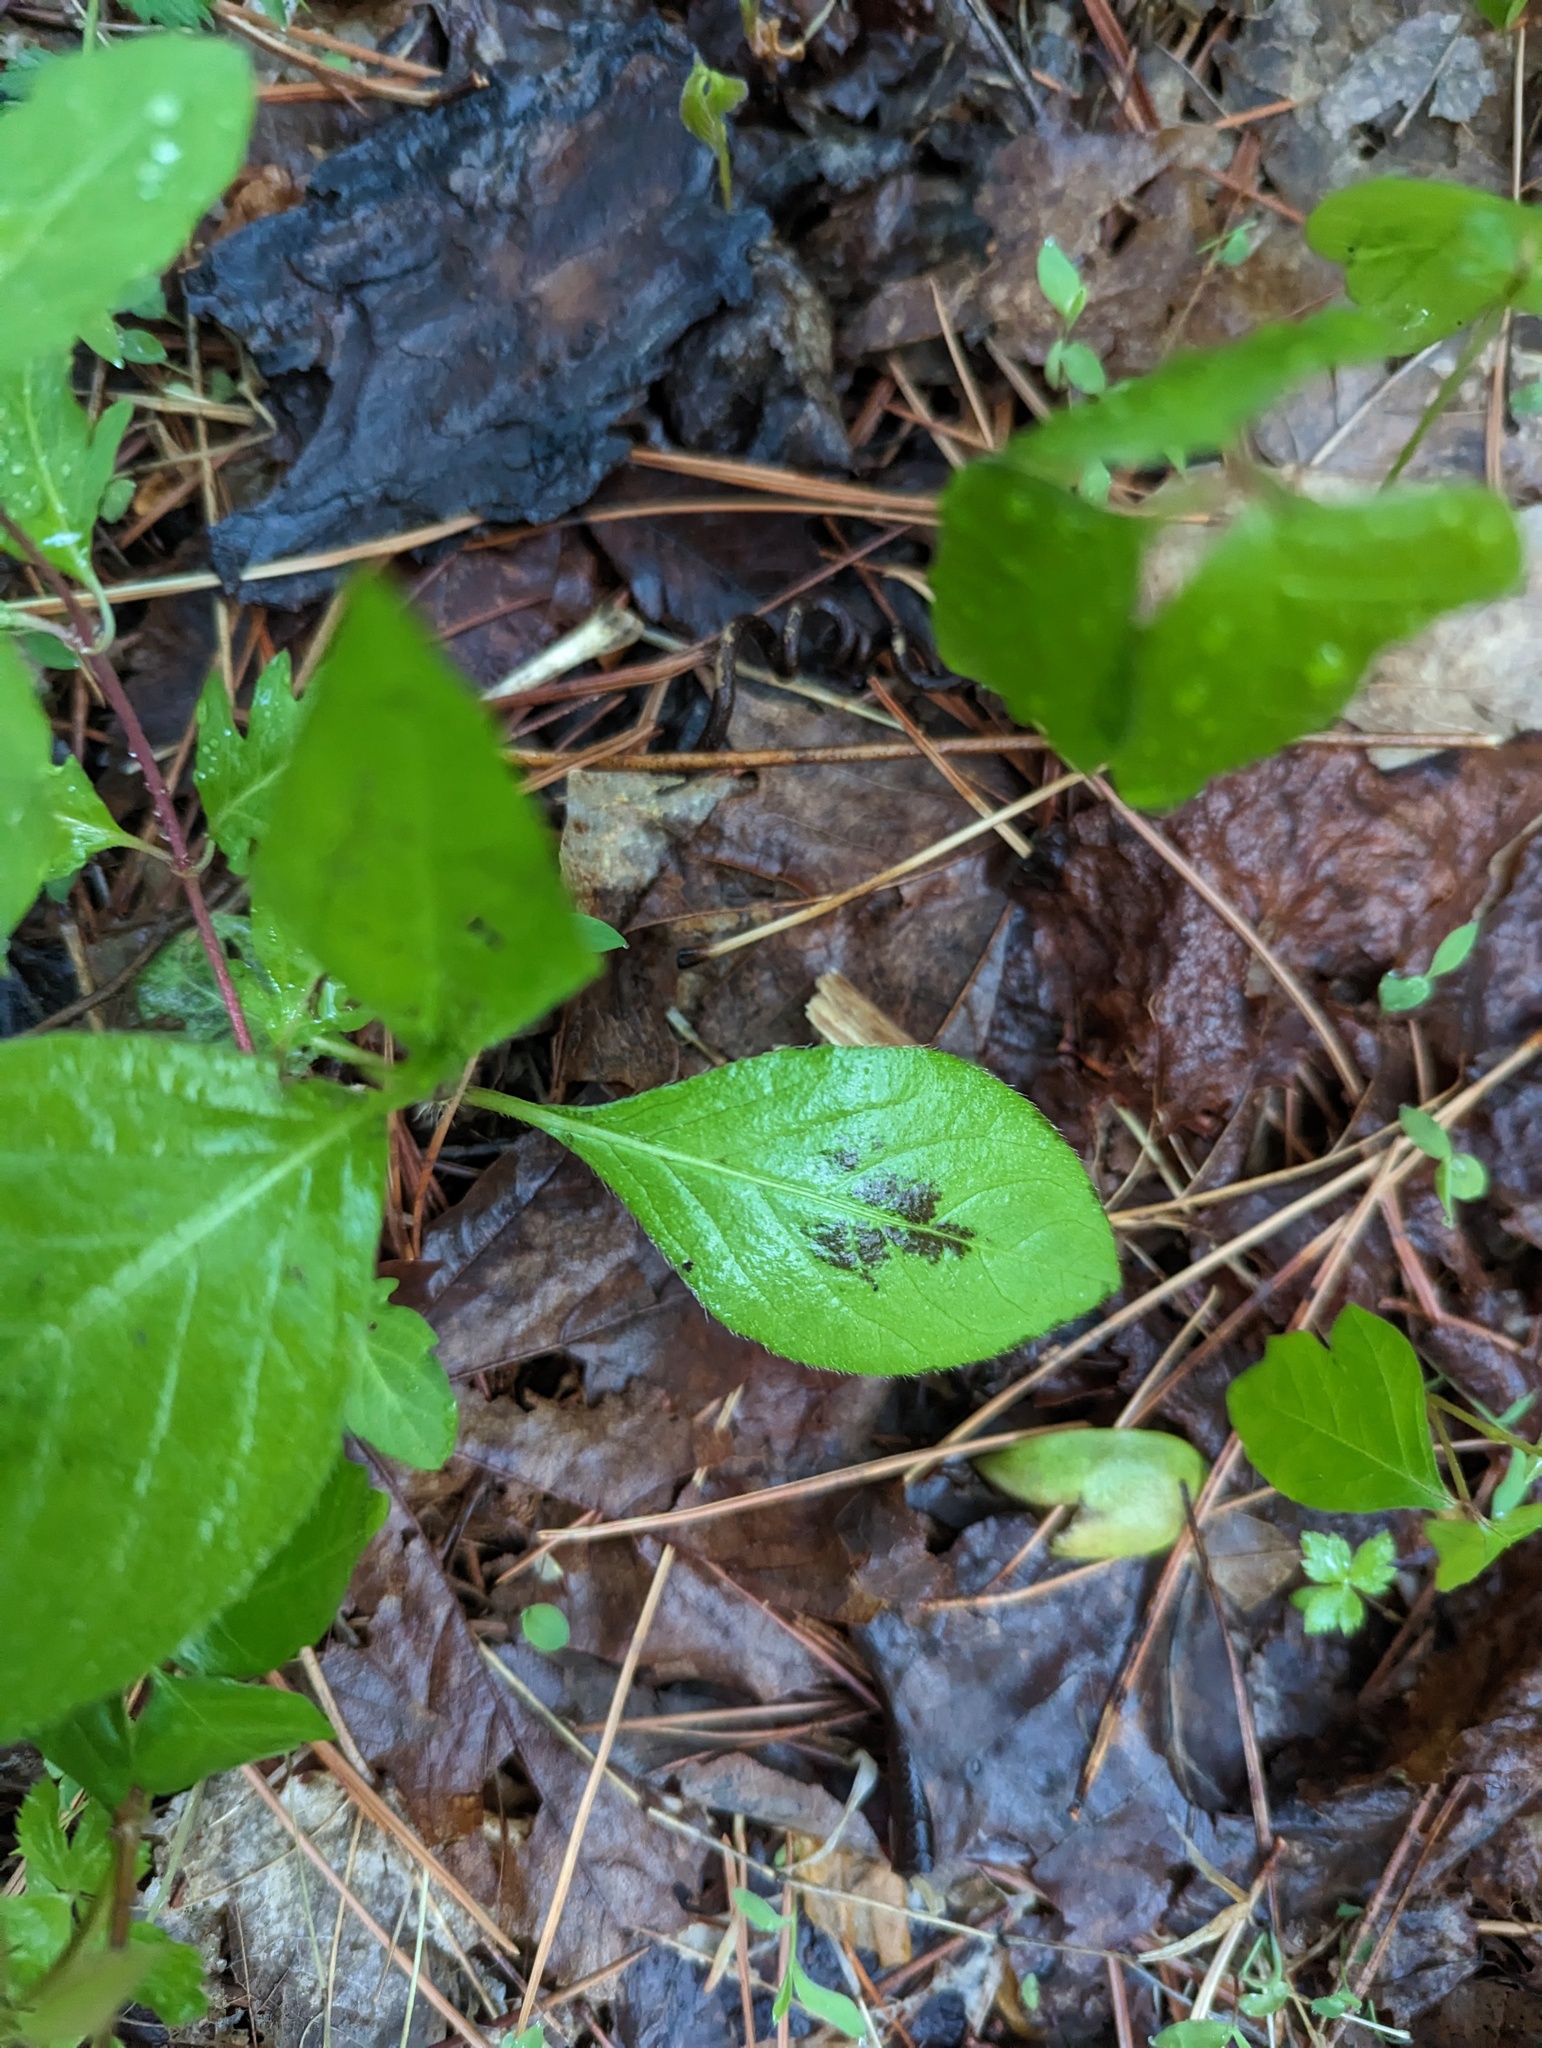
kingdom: Plantae
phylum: Tracheophyta
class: Magnoliopsida
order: Caryophyllales
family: Polygonaceae
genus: Persicaria
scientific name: Persicaria virginiana
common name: Jumpseed
